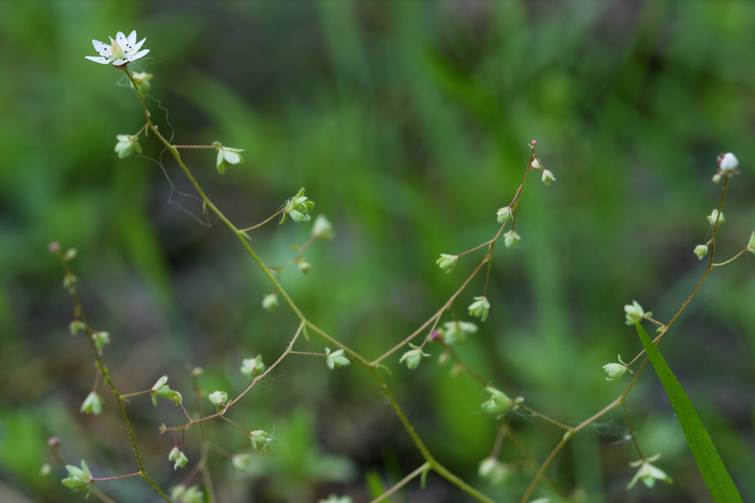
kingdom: Plantae
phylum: Tracheophyta
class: Magnoliopsida
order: Saxifragales
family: Saxifragaceae
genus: Micranthes
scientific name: Micranthes bryophora
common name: Bud saxifrage
